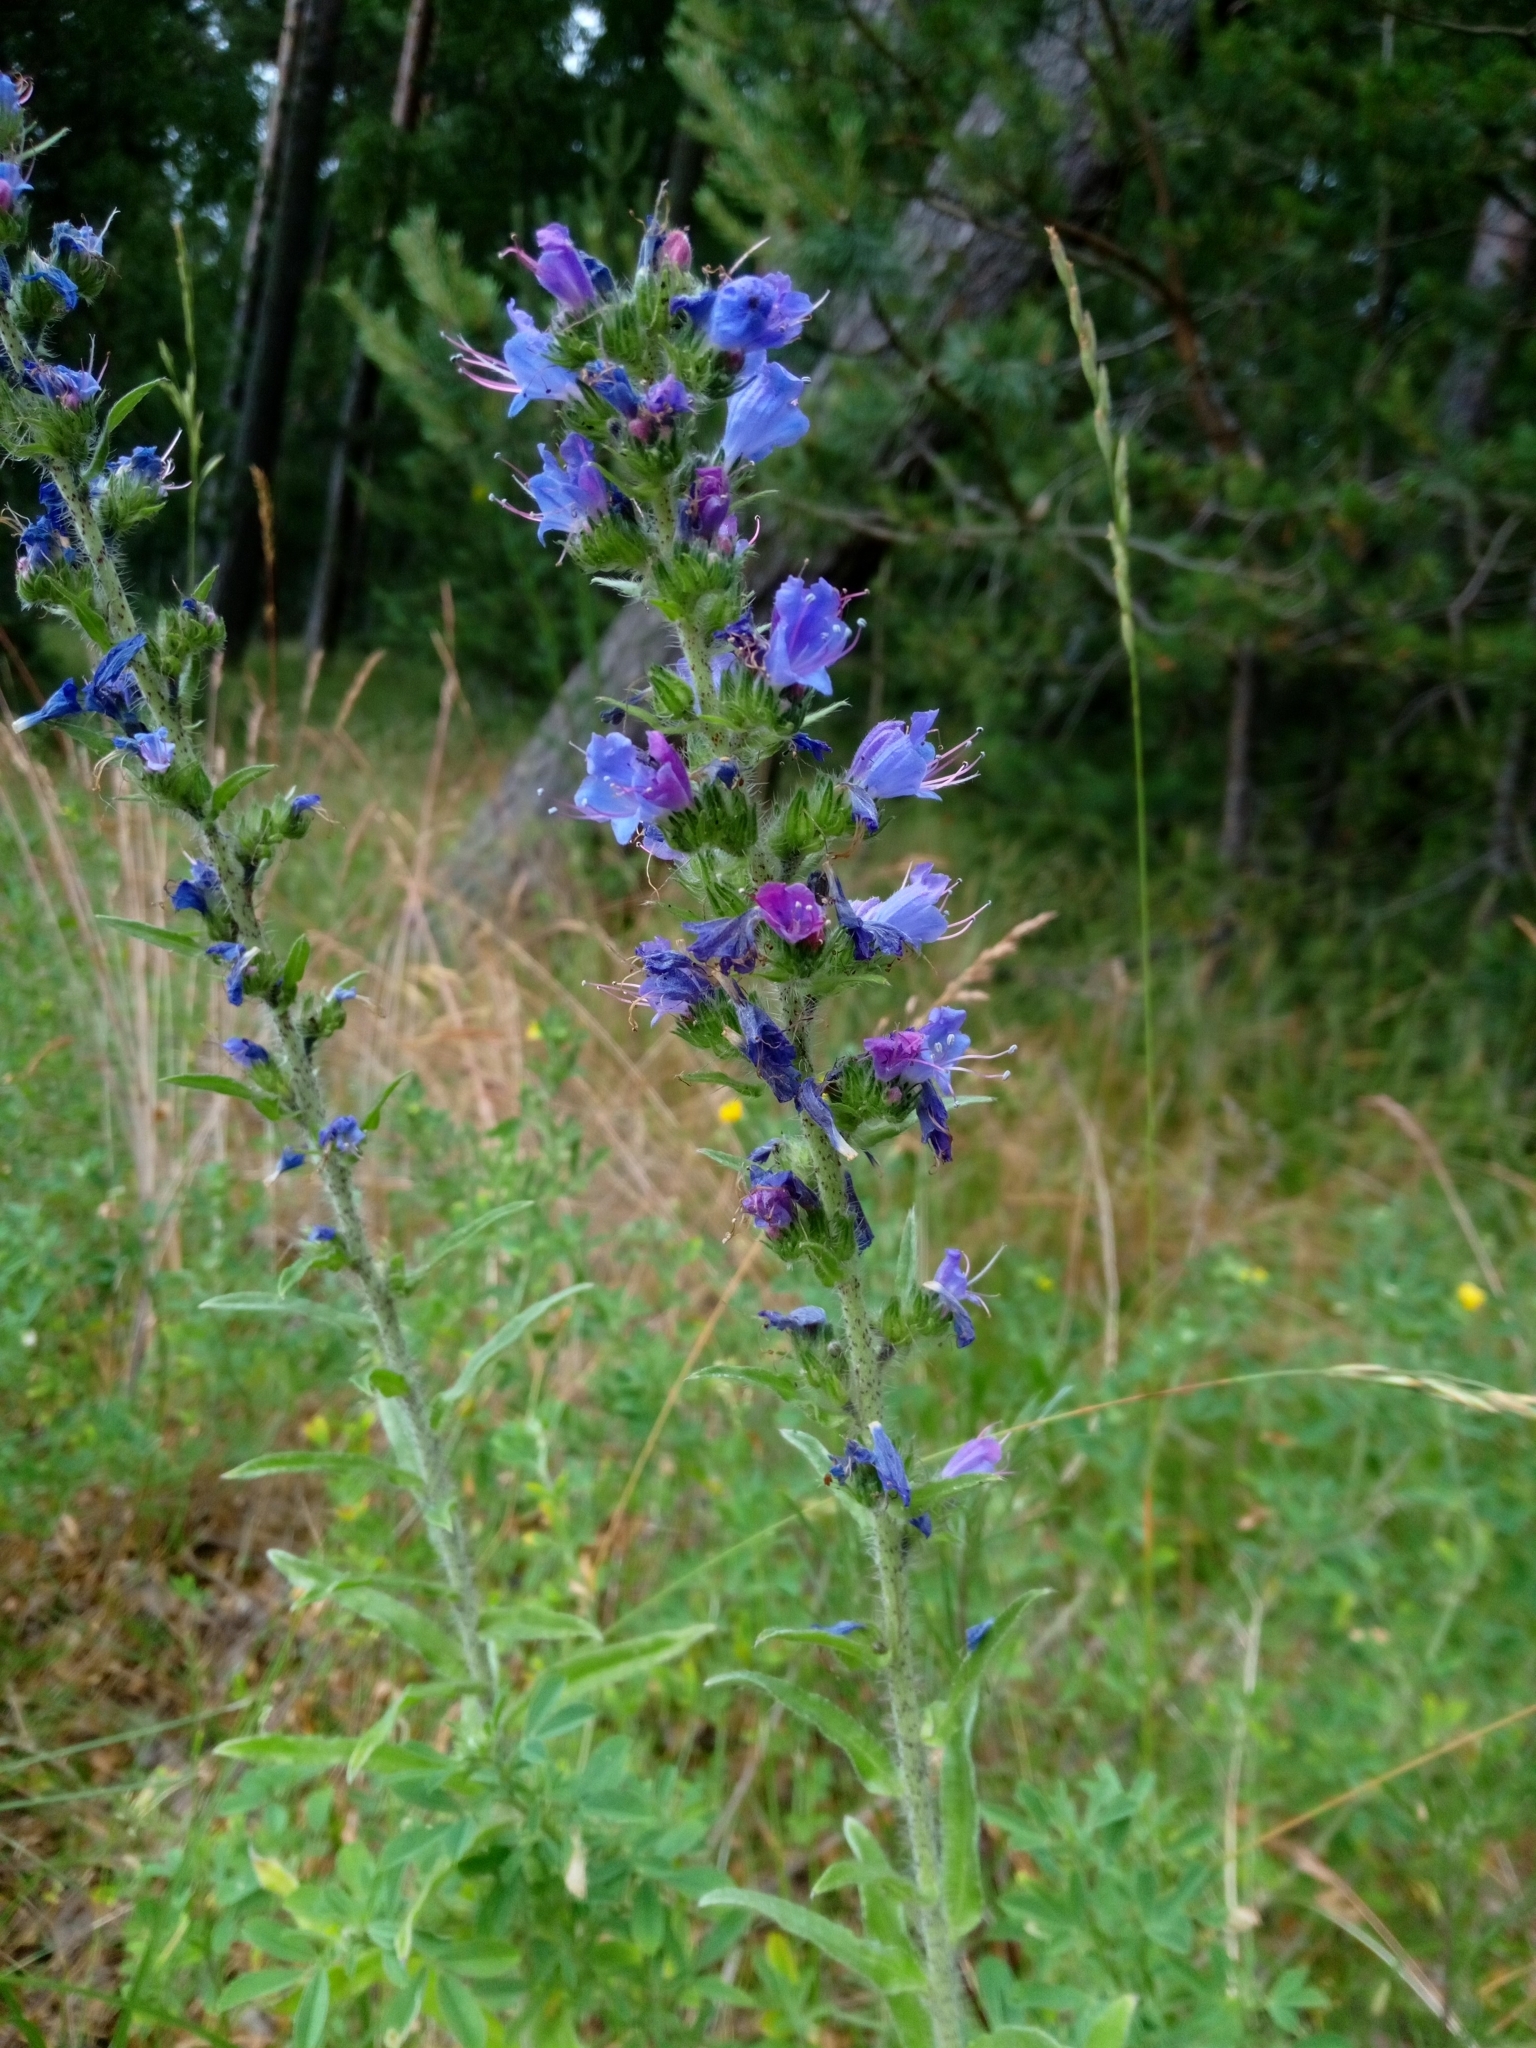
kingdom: Plantae
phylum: Tracheophyta
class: Magnoliopsida
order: Boraginales
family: Boraginaceae
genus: Echium
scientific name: Echium vulgare
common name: Common viper's bugloss
